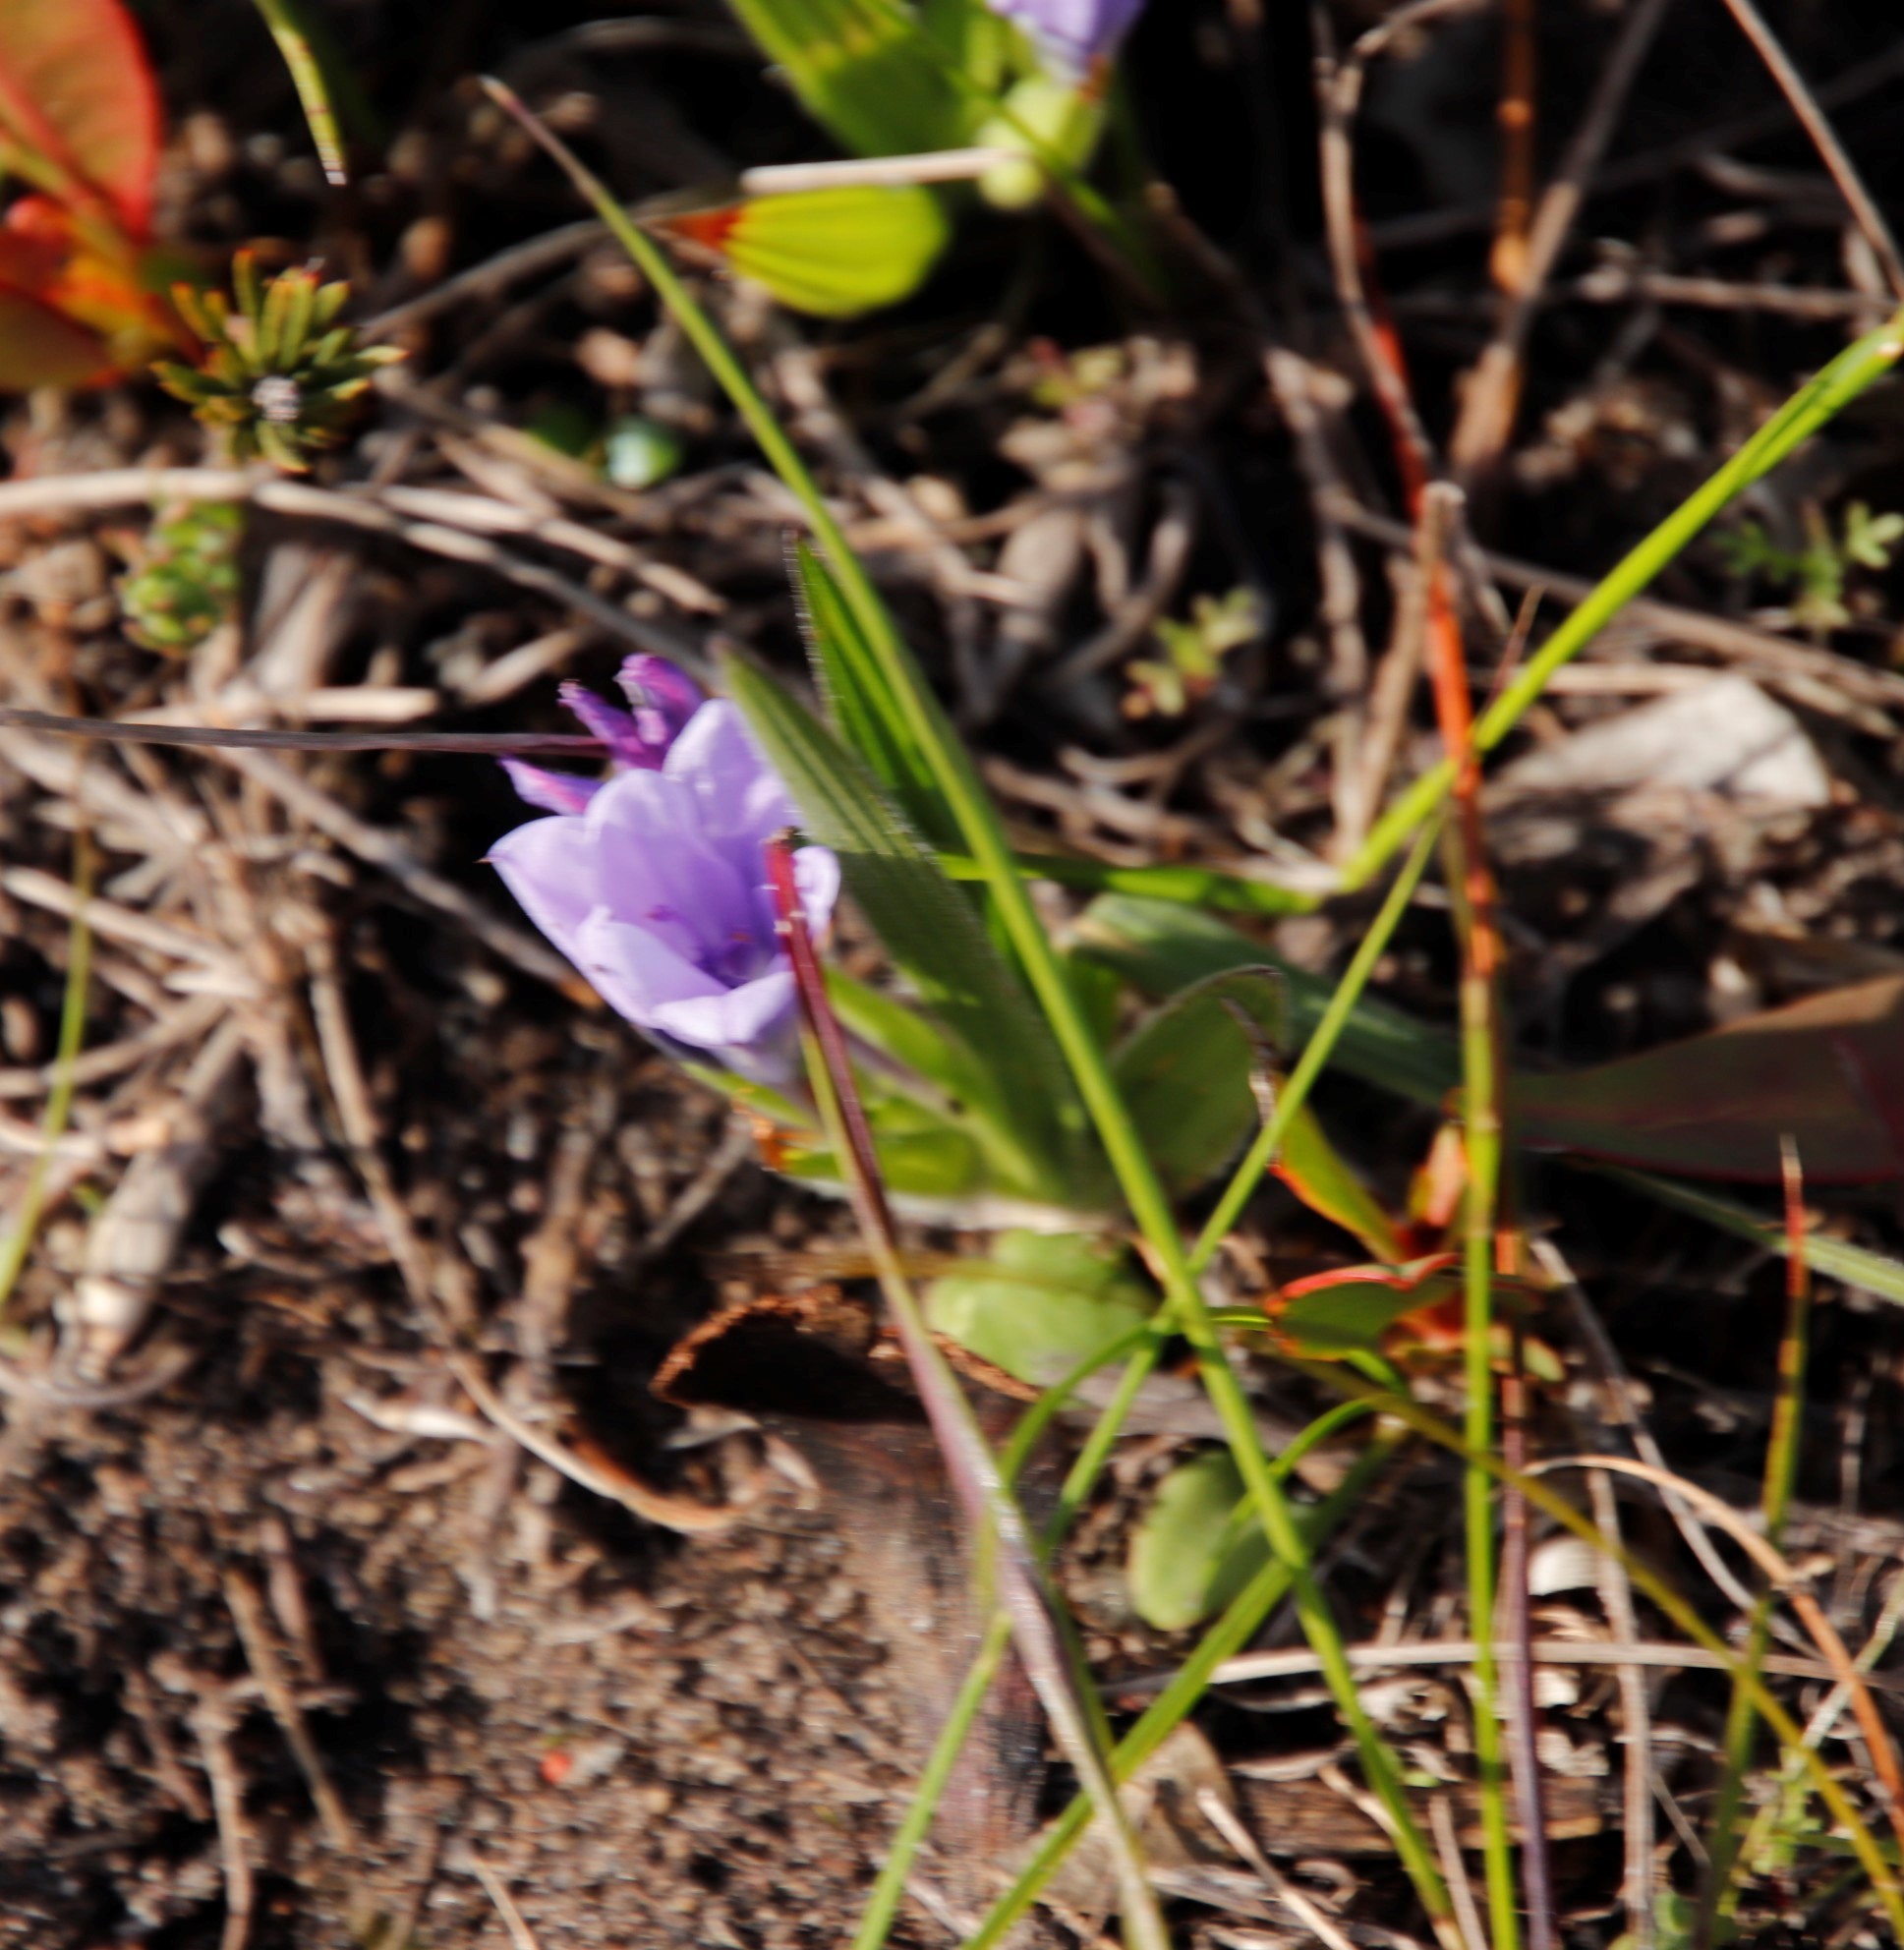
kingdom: Plantae
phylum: Tracheophyta
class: Liliopsida
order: Asparagales
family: Iridaceae
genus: Babiana
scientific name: Babiana villosula
